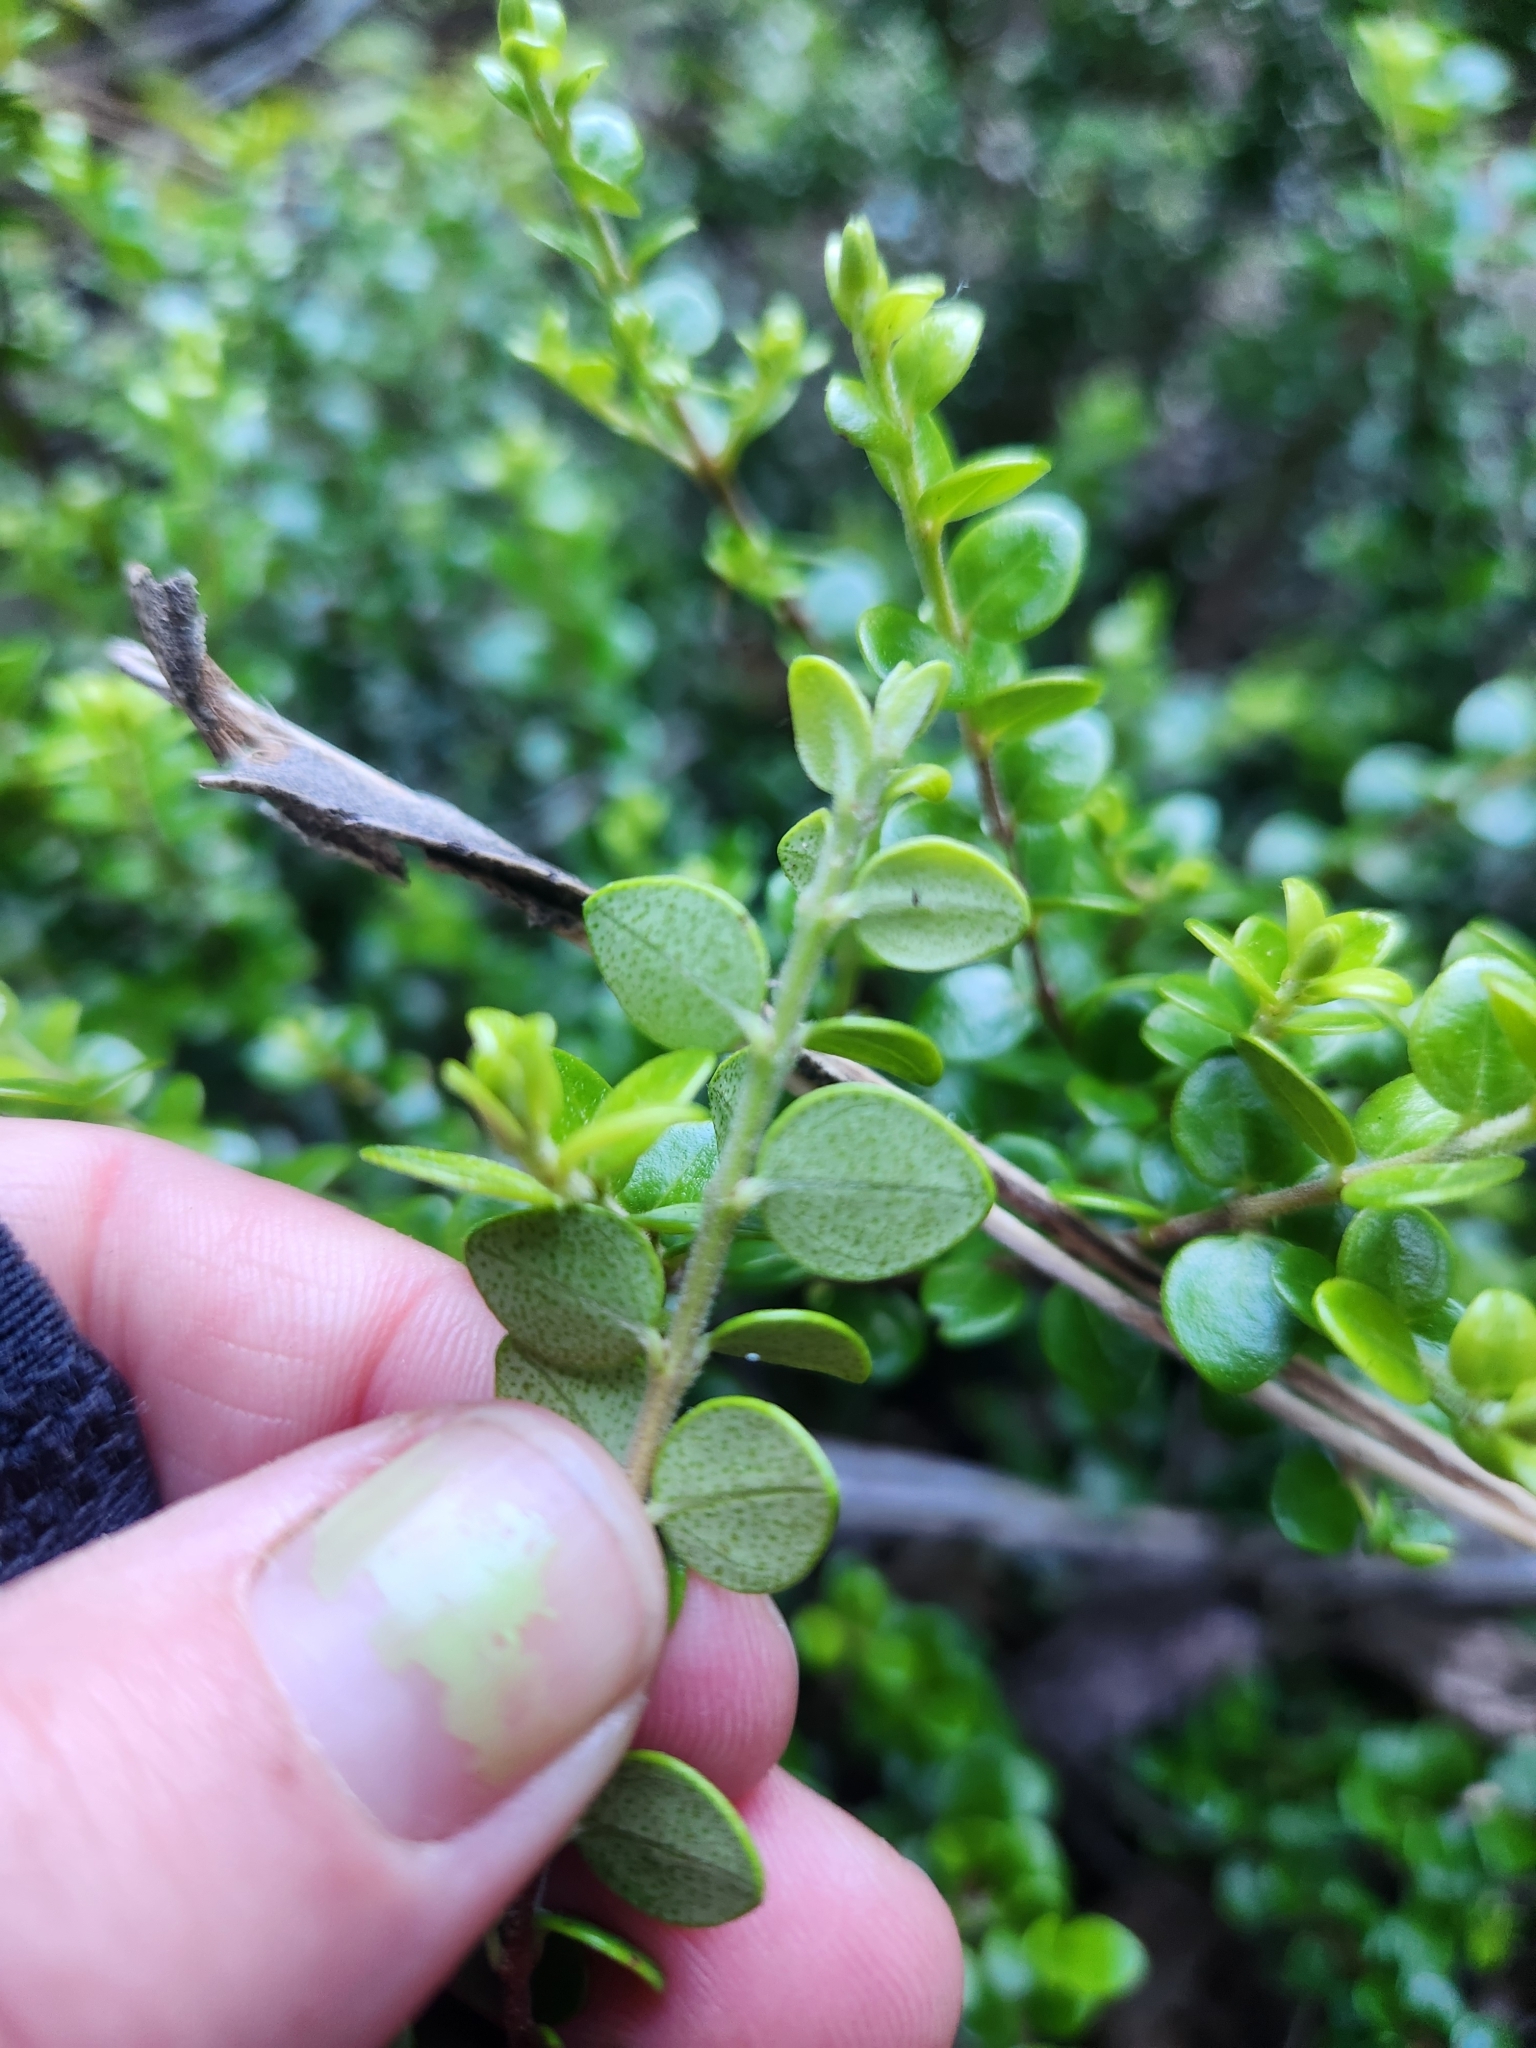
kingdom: Plantae
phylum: Tracheophyta
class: Magnoliopsida
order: Myrtales
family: Myrtaceae
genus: Metrosideros
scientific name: Metrosideros perforata
